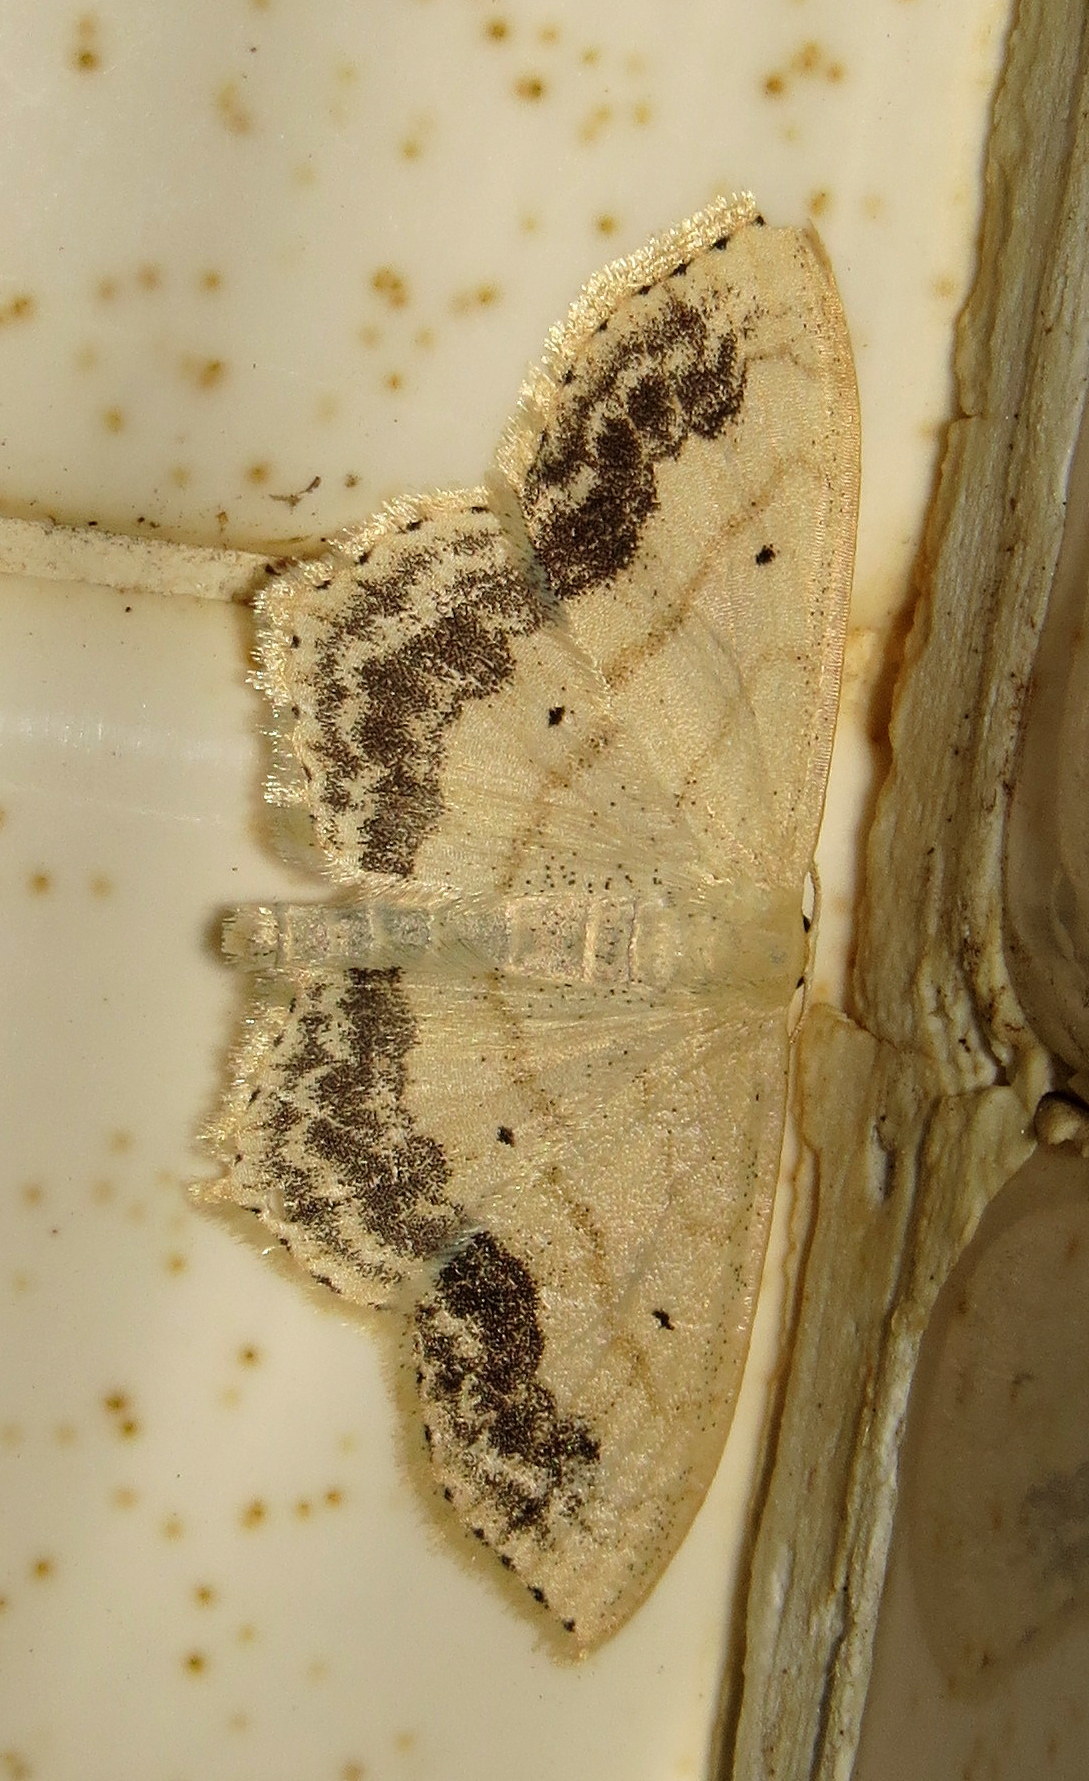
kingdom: Animalia
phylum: Arthropoda
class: Insecta
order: Lepidoptera
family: Geometridae
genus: Scopula
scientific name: Scopula limboundata
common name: Large lace border
